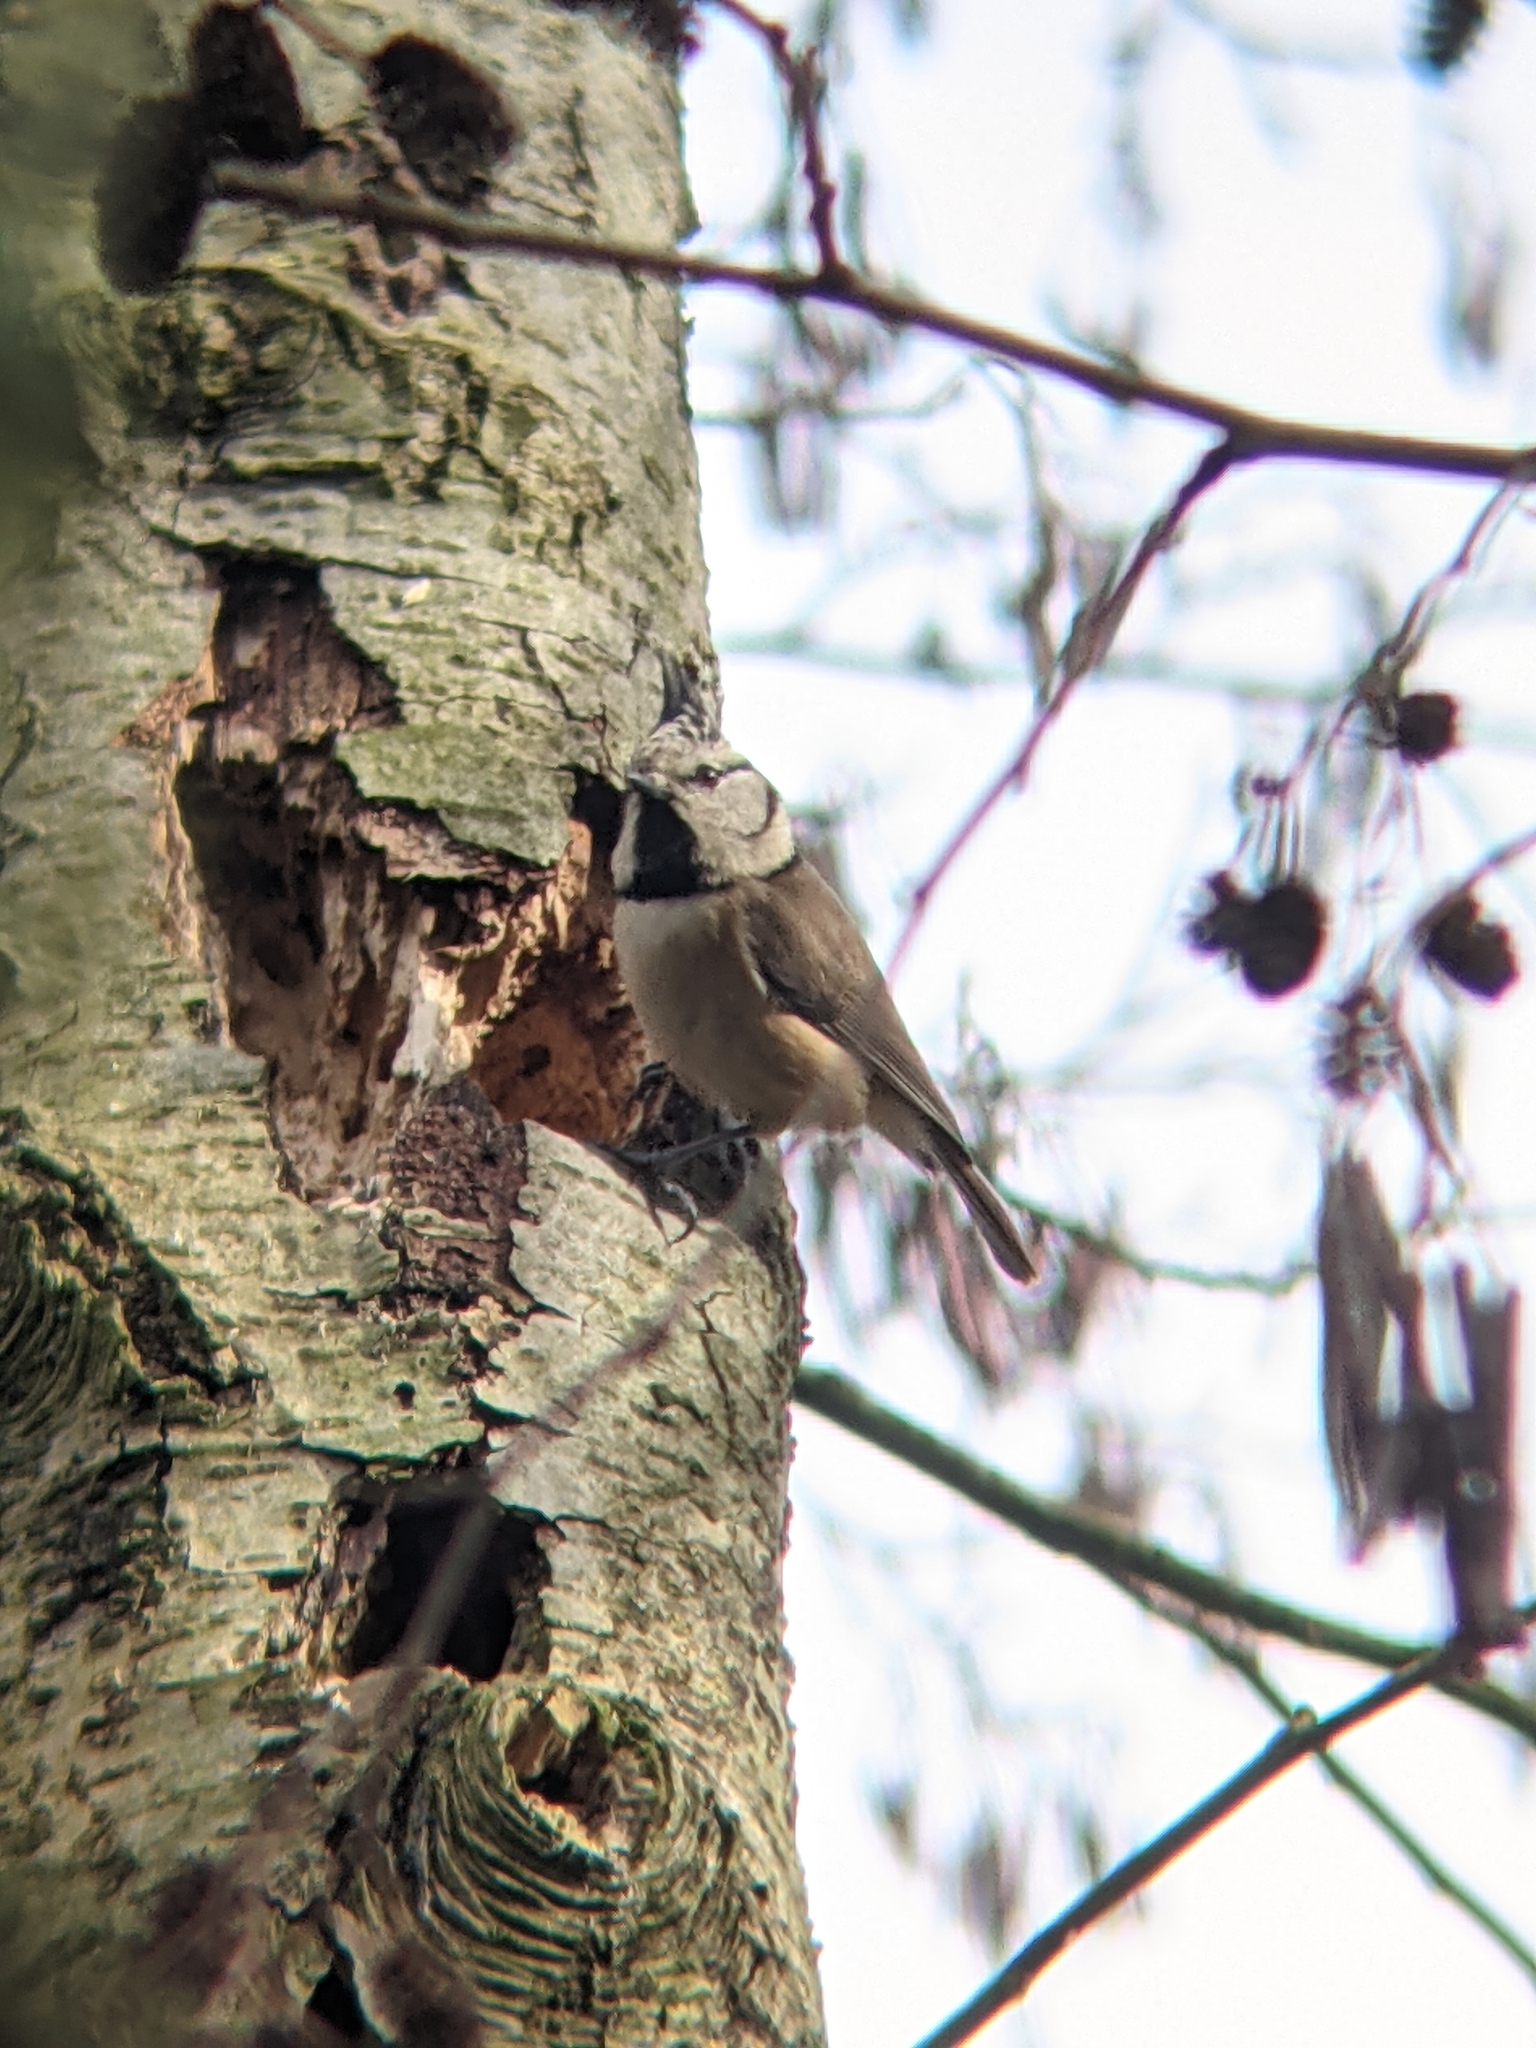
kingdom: Animalia
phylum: Chordata
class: Aves
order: Passeriformes
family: Paridae
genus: Lophophanes
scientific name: Lophophanes cristatus
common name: European crested tit
